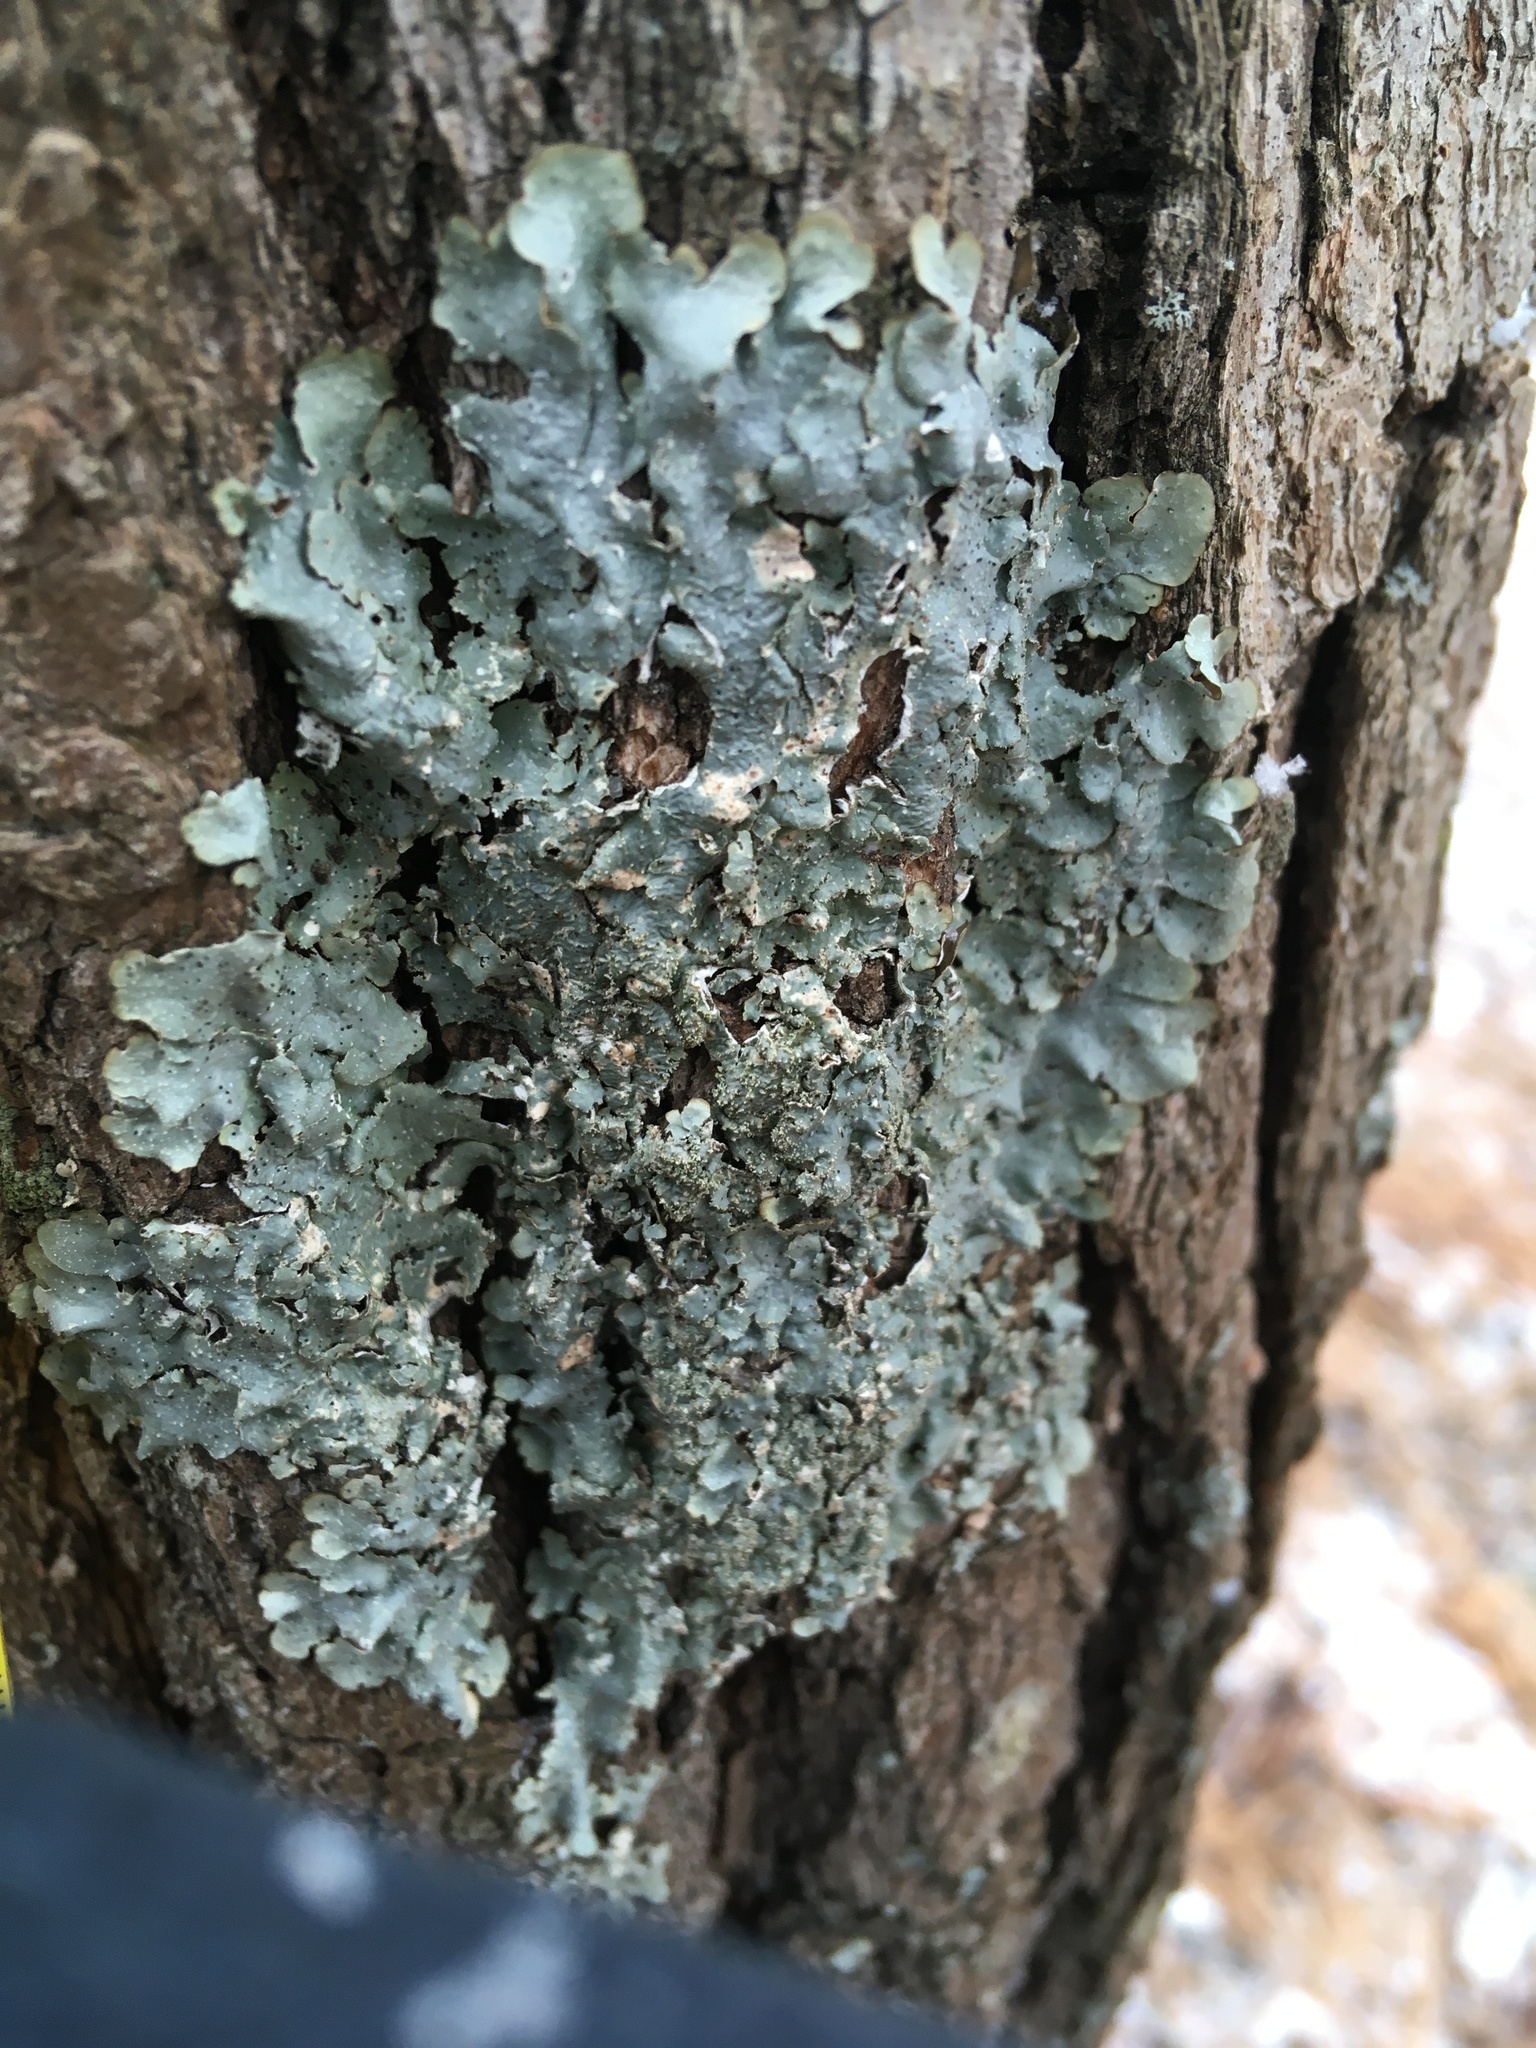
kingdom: Fungi
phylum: Ascomycota
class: Lecanoromycetes
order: Lecanorales
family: Parmeliaceae
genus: Punctelia
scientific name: Punctelia rudecta
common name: Rough speckled shield lichen
